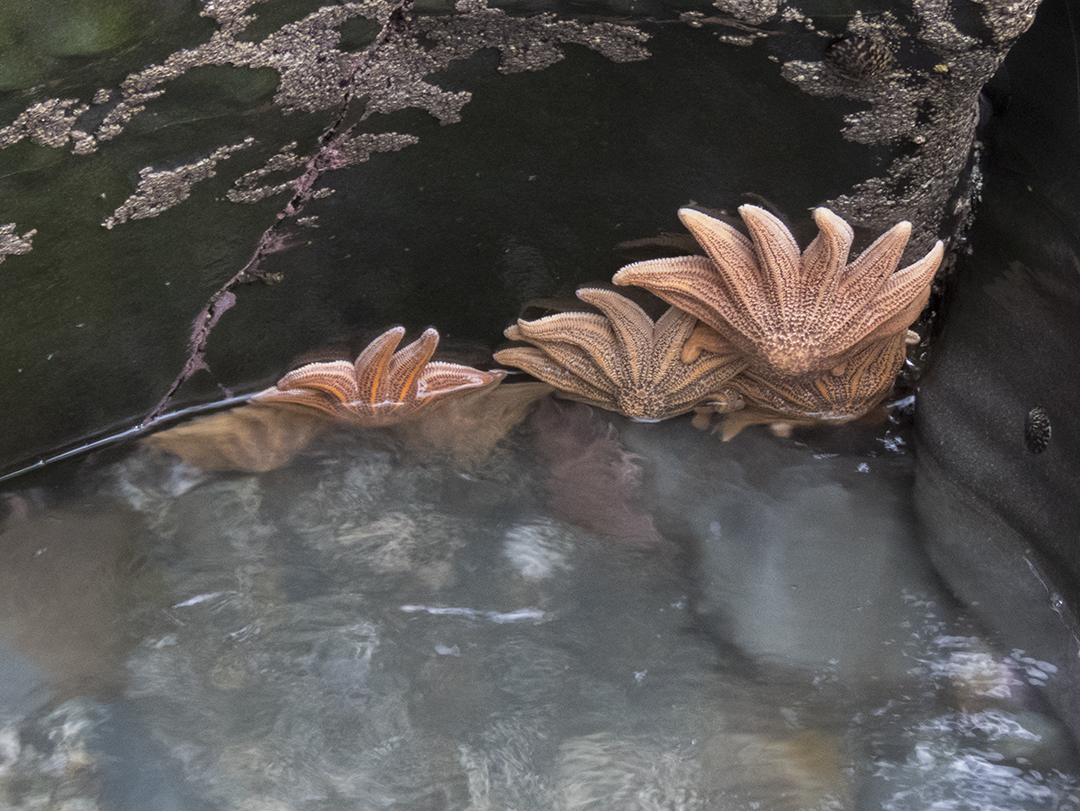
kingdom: Animalia
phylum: Echinodermata
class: Asteroidea
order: Forcipulatida
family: Stichasteridae
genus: Stichaster
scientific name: Stichaster australis
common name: Reef starfish
